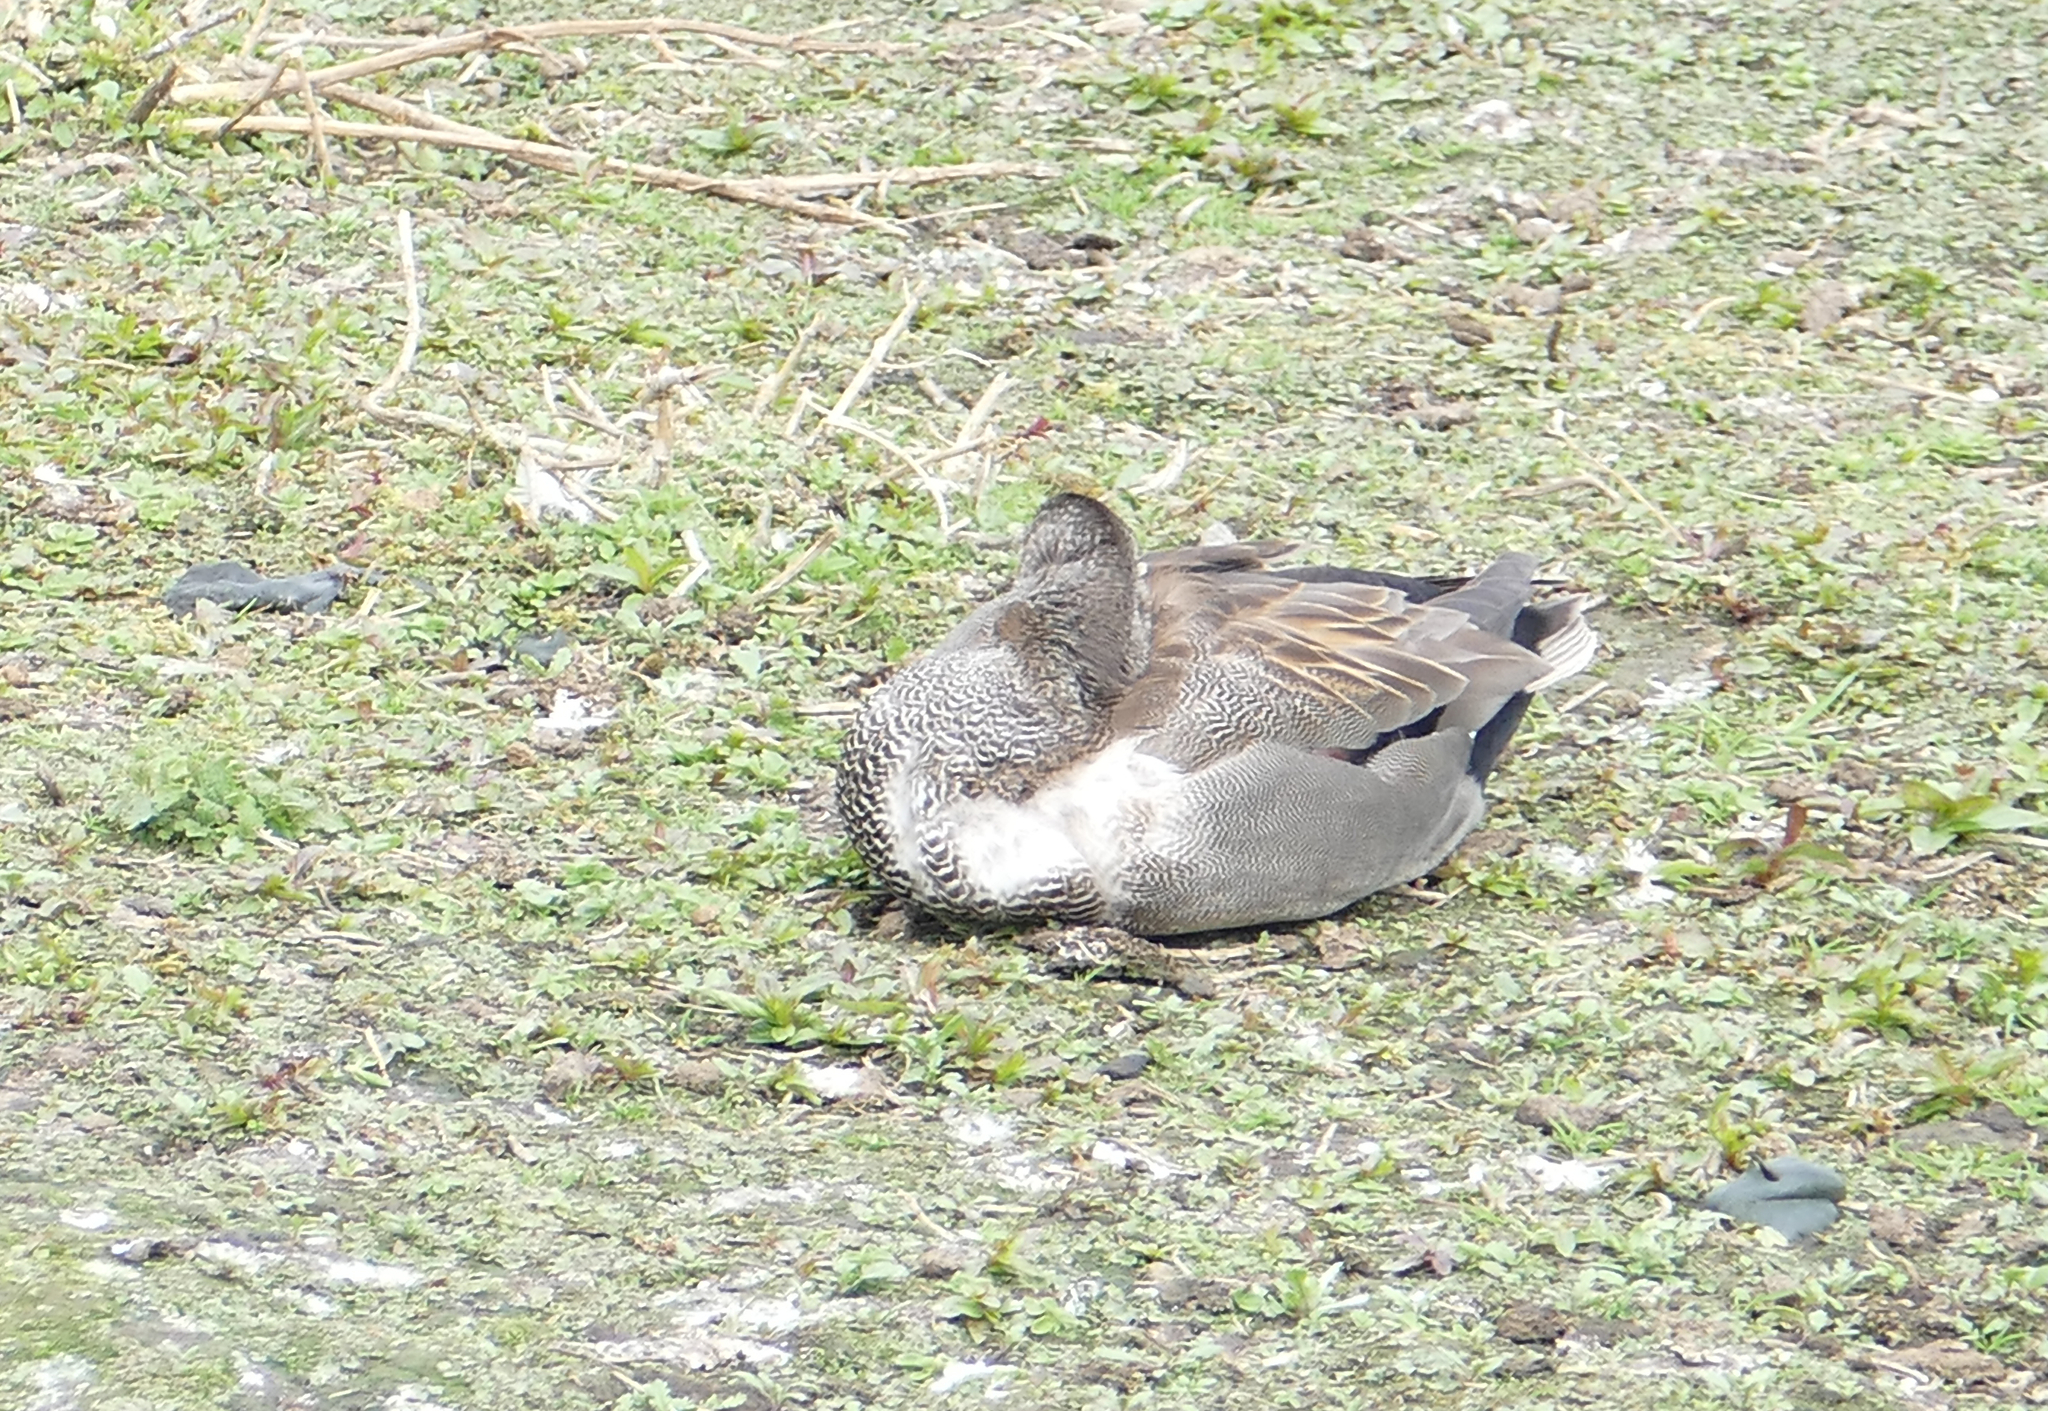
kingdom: Animalia
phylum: Chordata
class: Aves
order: Anseriformes
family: Anatidae
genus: Mareca
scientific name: Mareca strepera
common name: Gadwall
